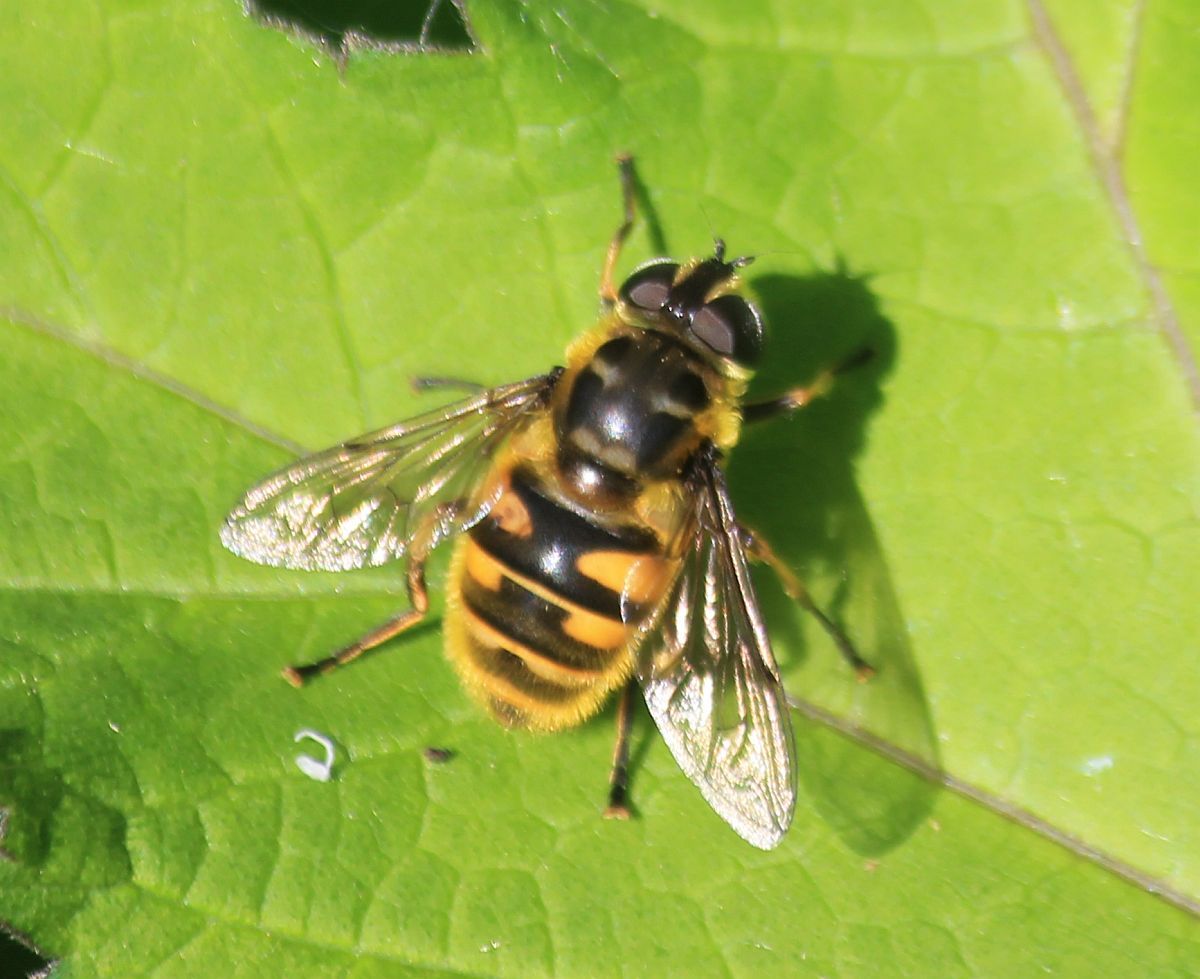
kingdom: Animalia
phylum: Arthropoda
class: Insecta
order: Diptera
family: Syrphidae
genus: Myathropa
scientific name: Myathropa florea
